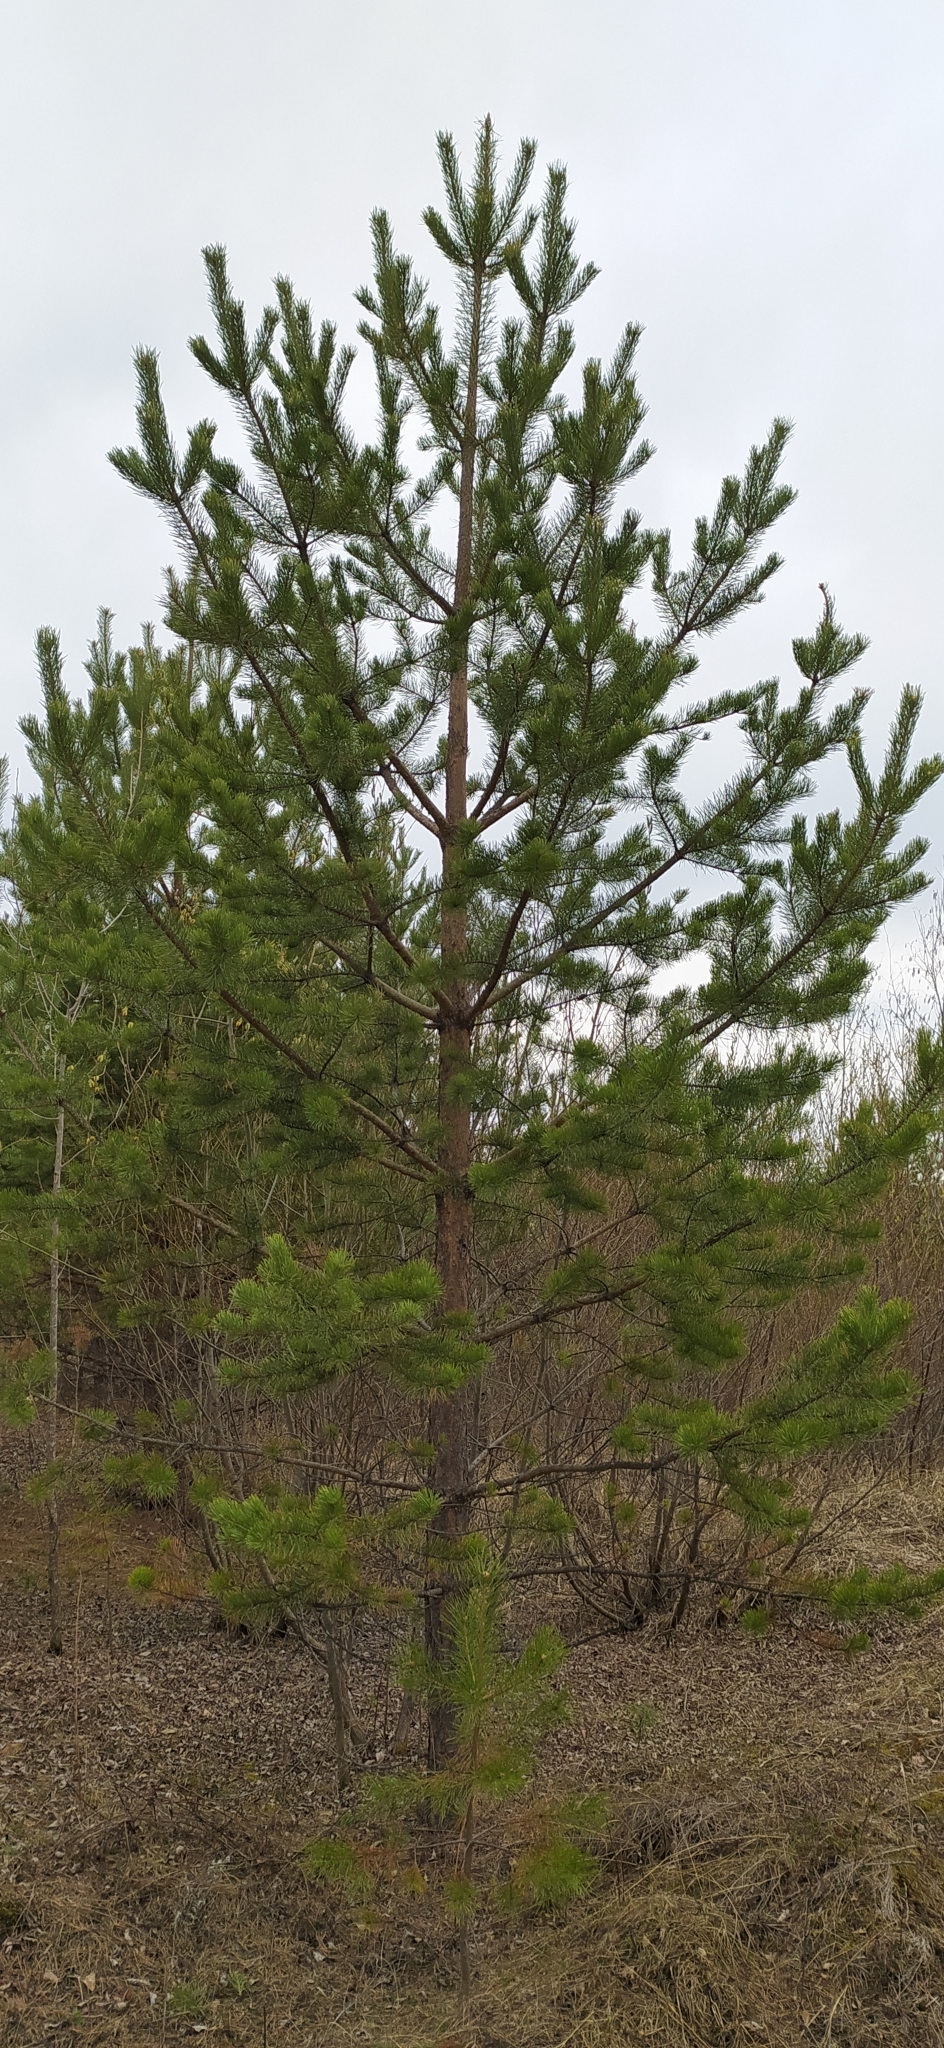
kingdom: Plantae
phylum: Tracheophyta
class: Pinopsida
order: Pinales
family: Pinaceae
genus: Pinus
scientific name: Pinus sylvestris
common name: Scots pine
